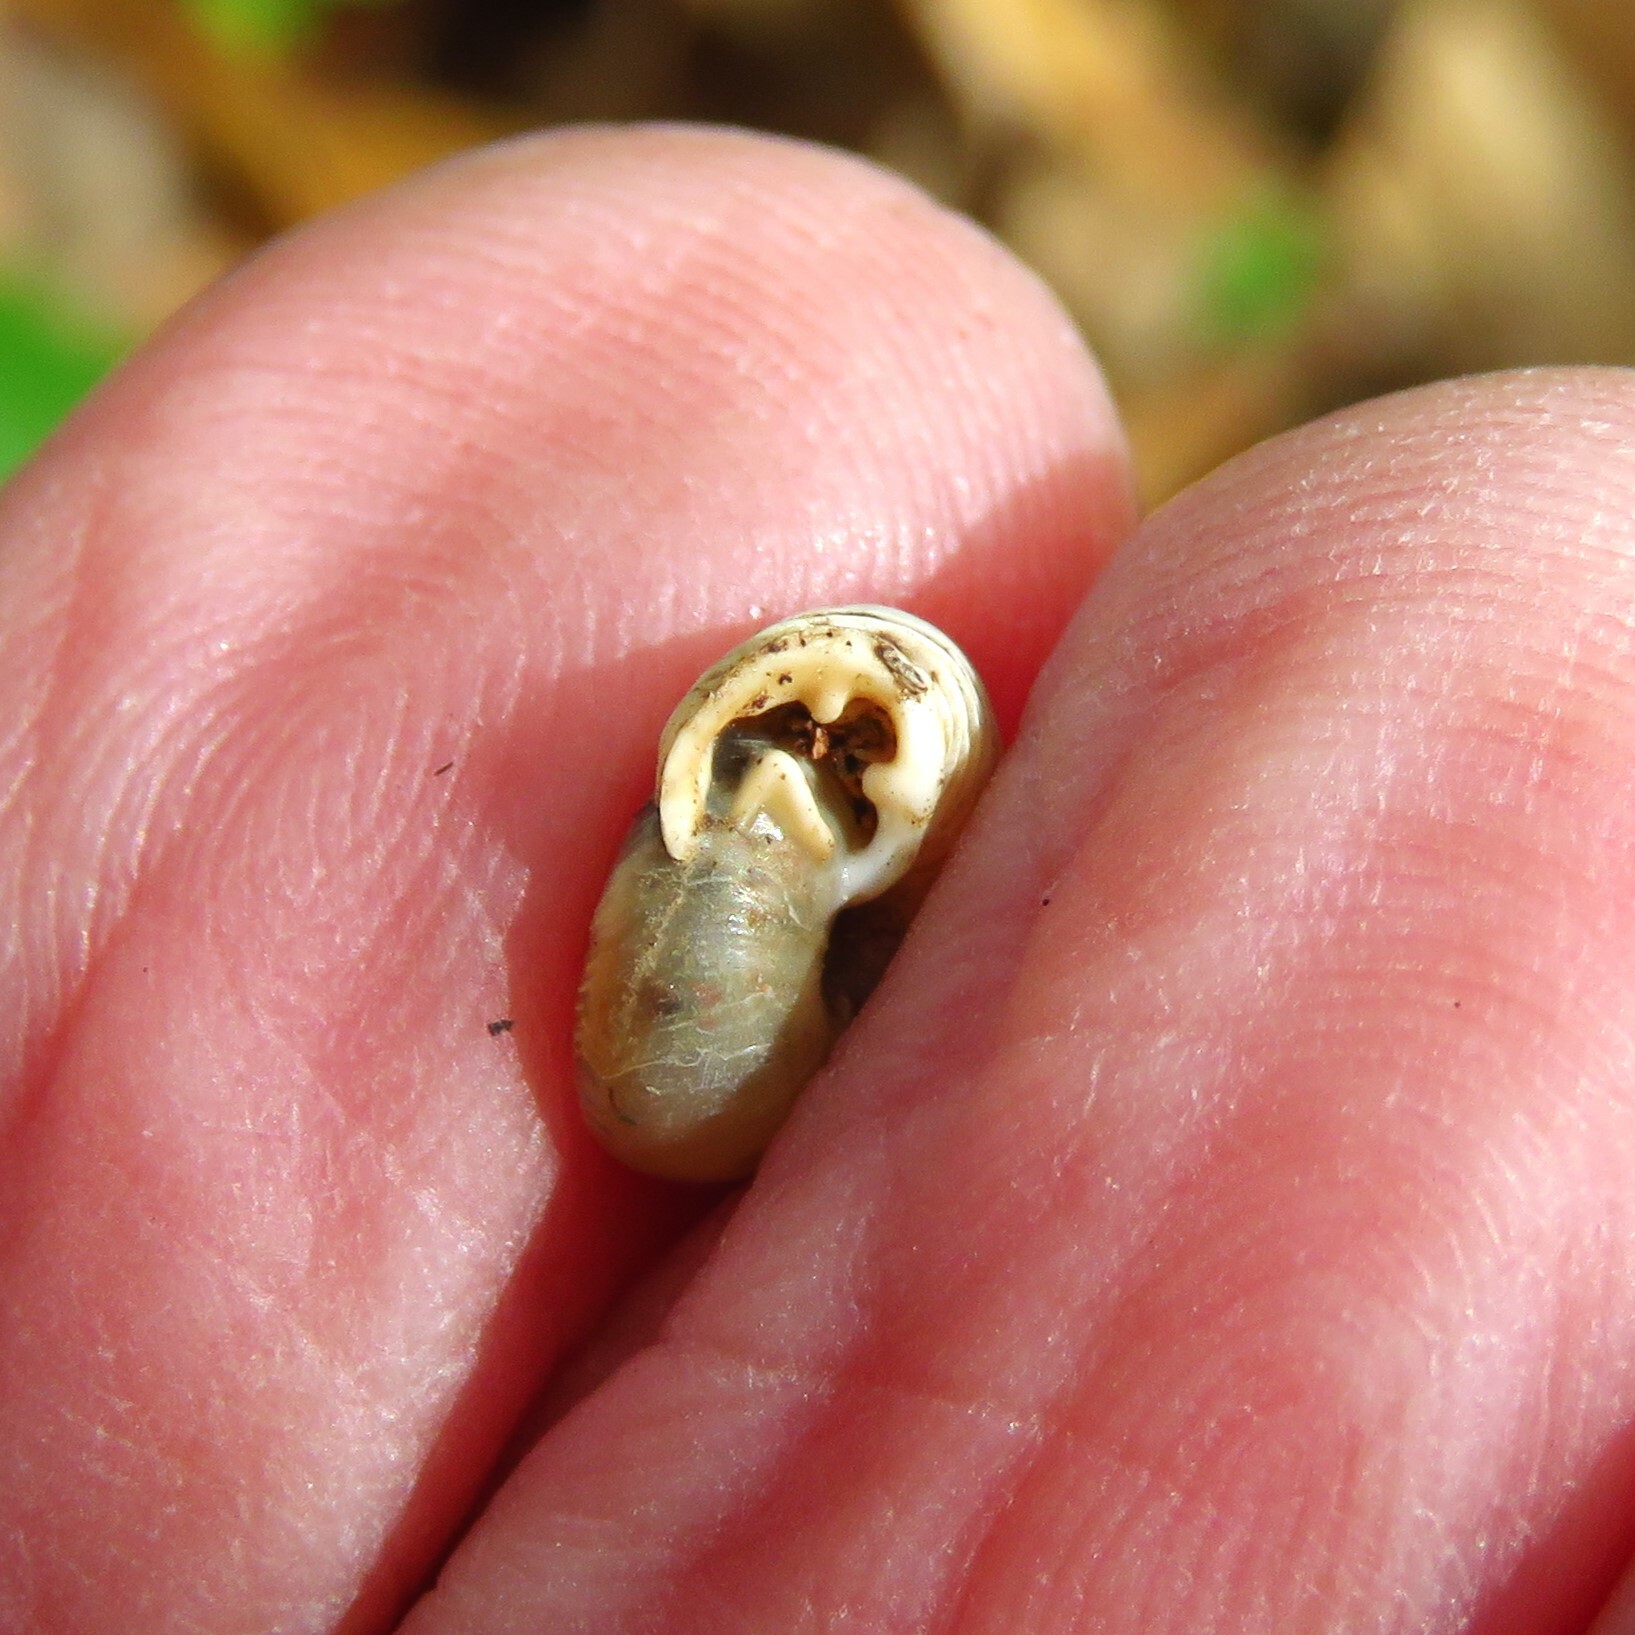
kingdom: Animalia
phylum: Mollusca
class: Gastropoda
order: Stylommatophora
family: Polygyridae
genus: Linisa
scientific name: Linisa texasiana
